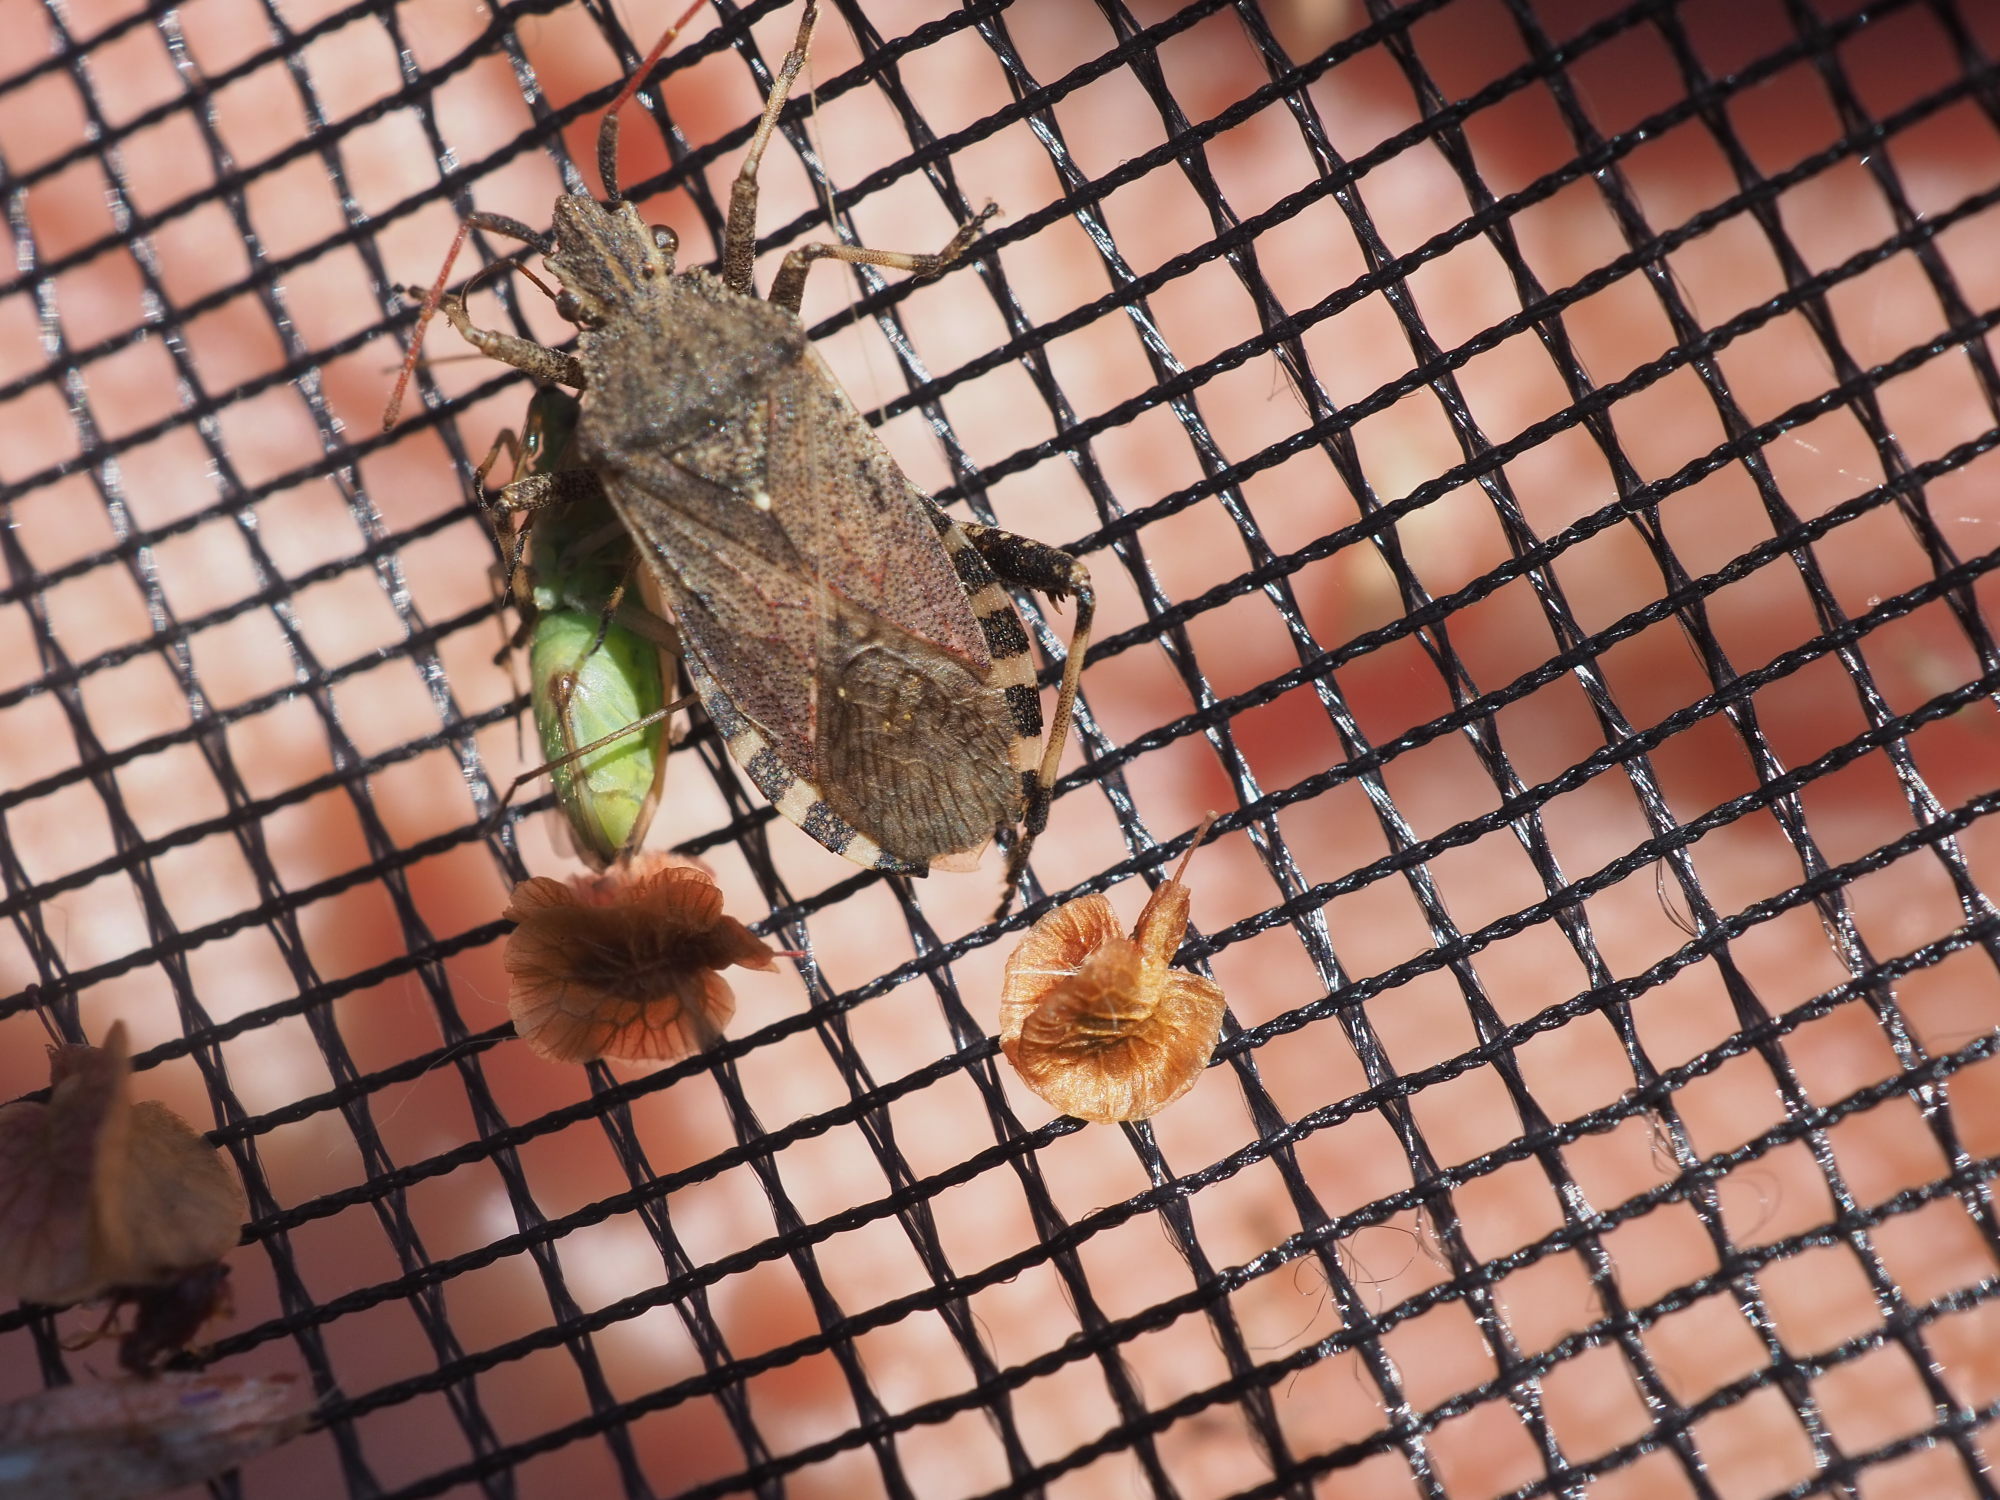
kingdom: Animalia
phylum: Arthropoda
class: Insecta
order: Hemiptera
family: Coreidae
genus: Ceraleptus
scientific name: Ceraleptus gracilicornis
